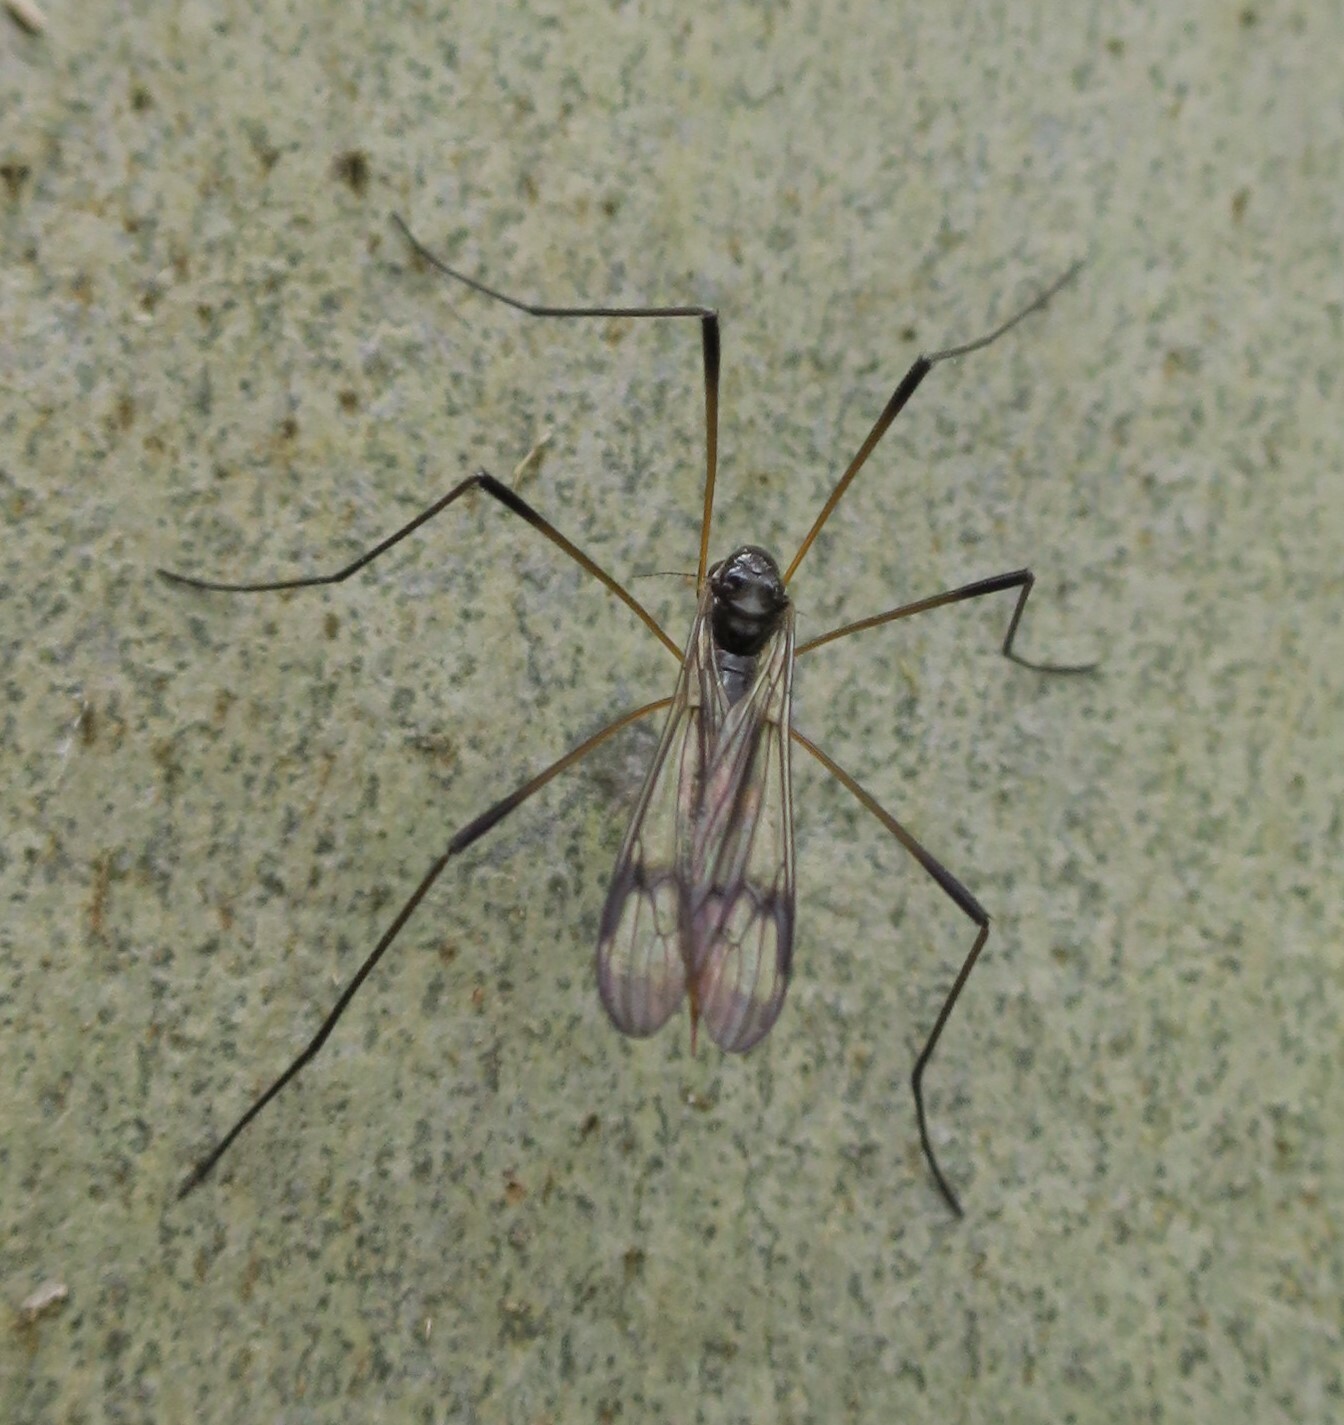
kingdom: Animalia
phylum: Arthropoda
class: Insecta
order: Diptera
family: Limoniidae
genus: Helius
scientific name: Helius harrisi
